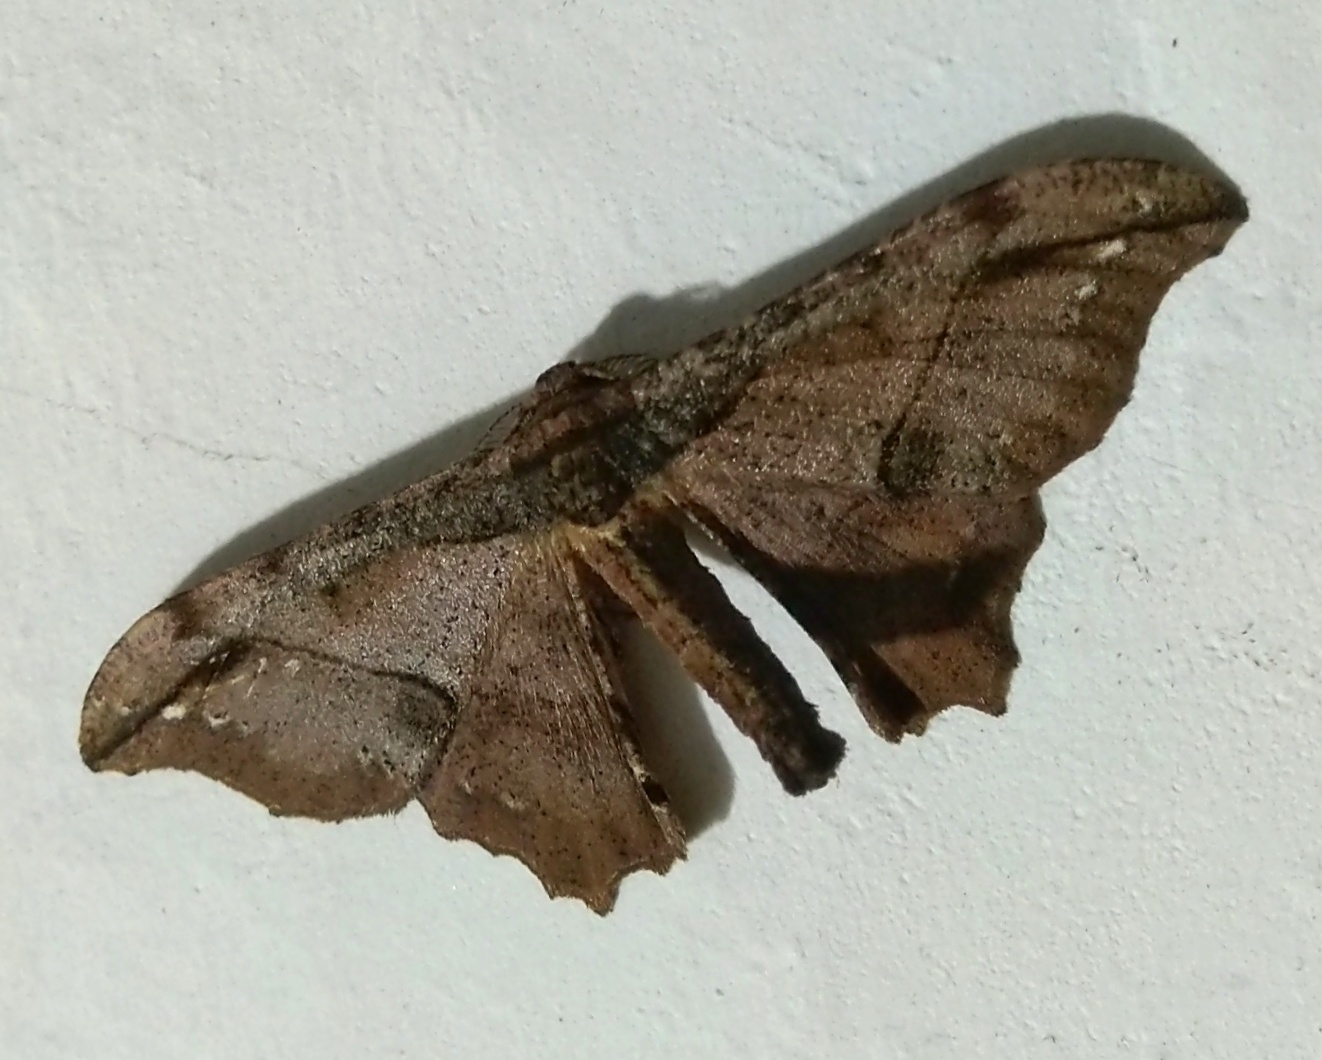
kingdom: Animalia
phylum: Arthropoda
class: Insecta
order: Lepidoptera
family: Geometridae
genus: Hyposidra
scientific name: Hyposidra infixaria
